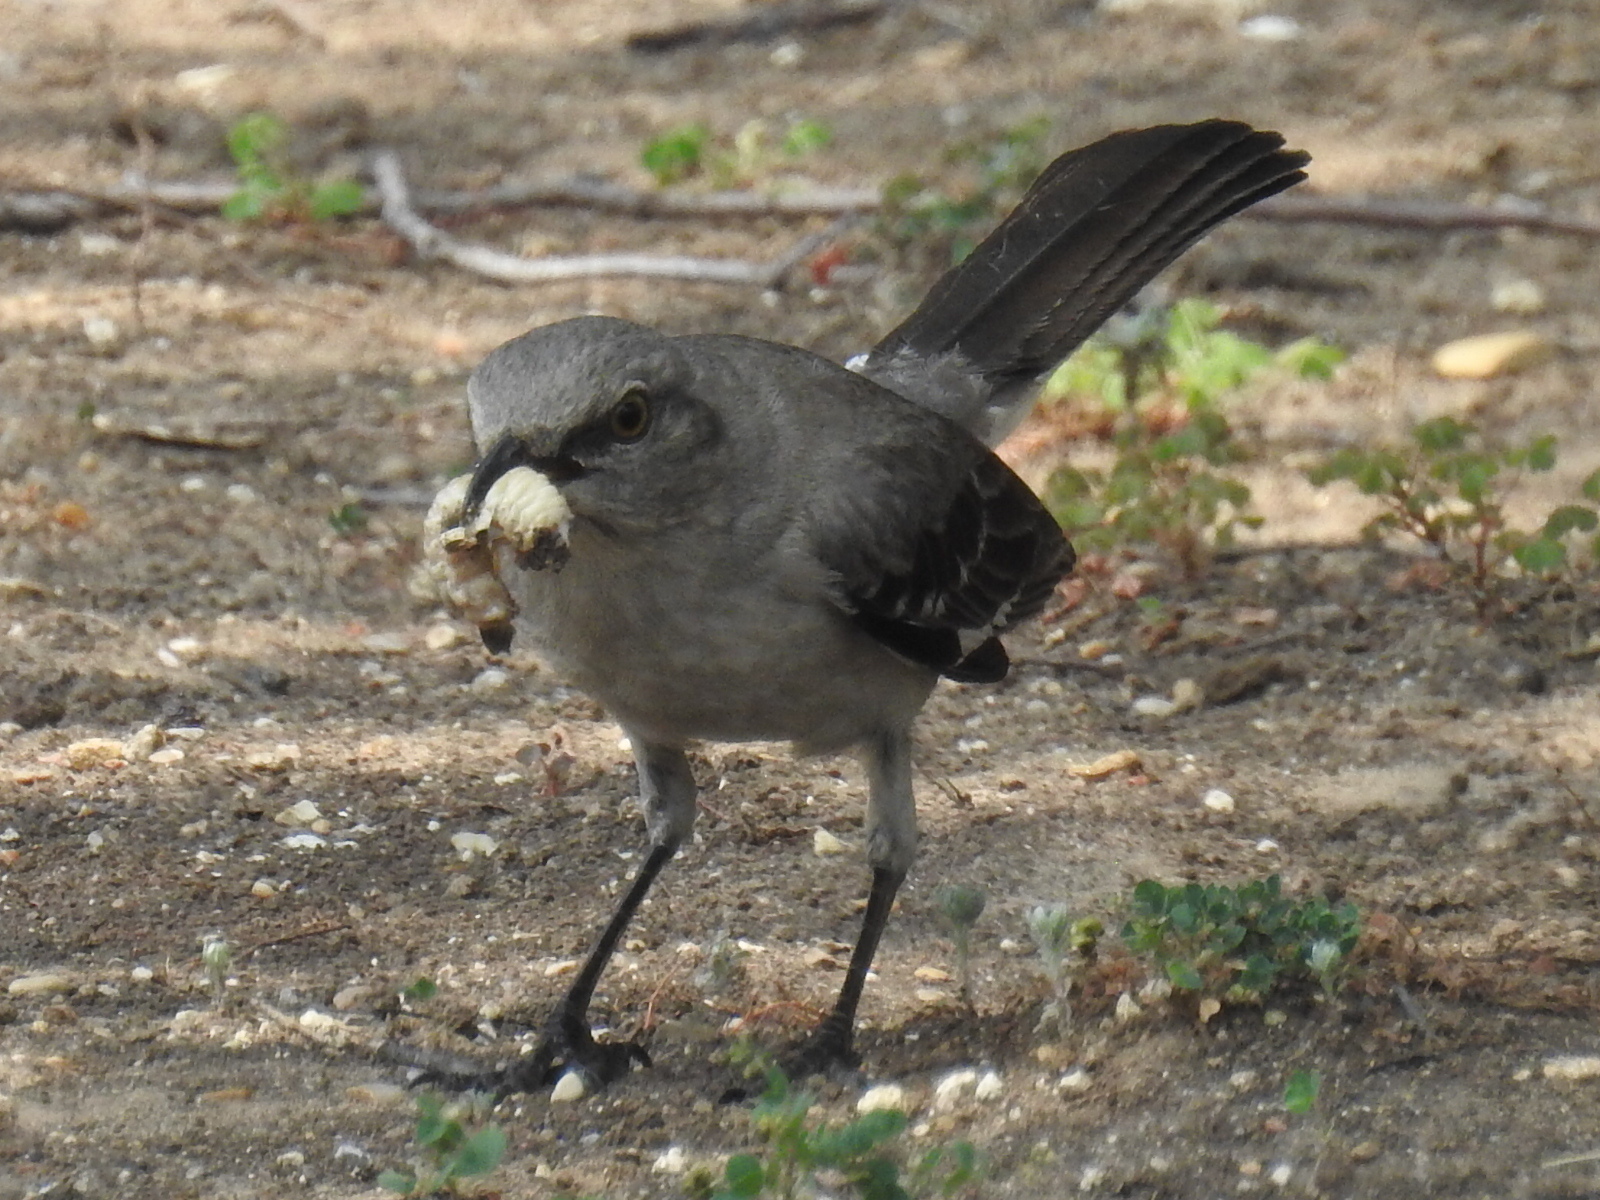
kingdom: Animalia
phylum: Chordata
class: Aves
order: Passeriformes
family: Mimidae
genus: Mimus
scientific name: Mimus polyglottos
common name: Northern mockingbird
